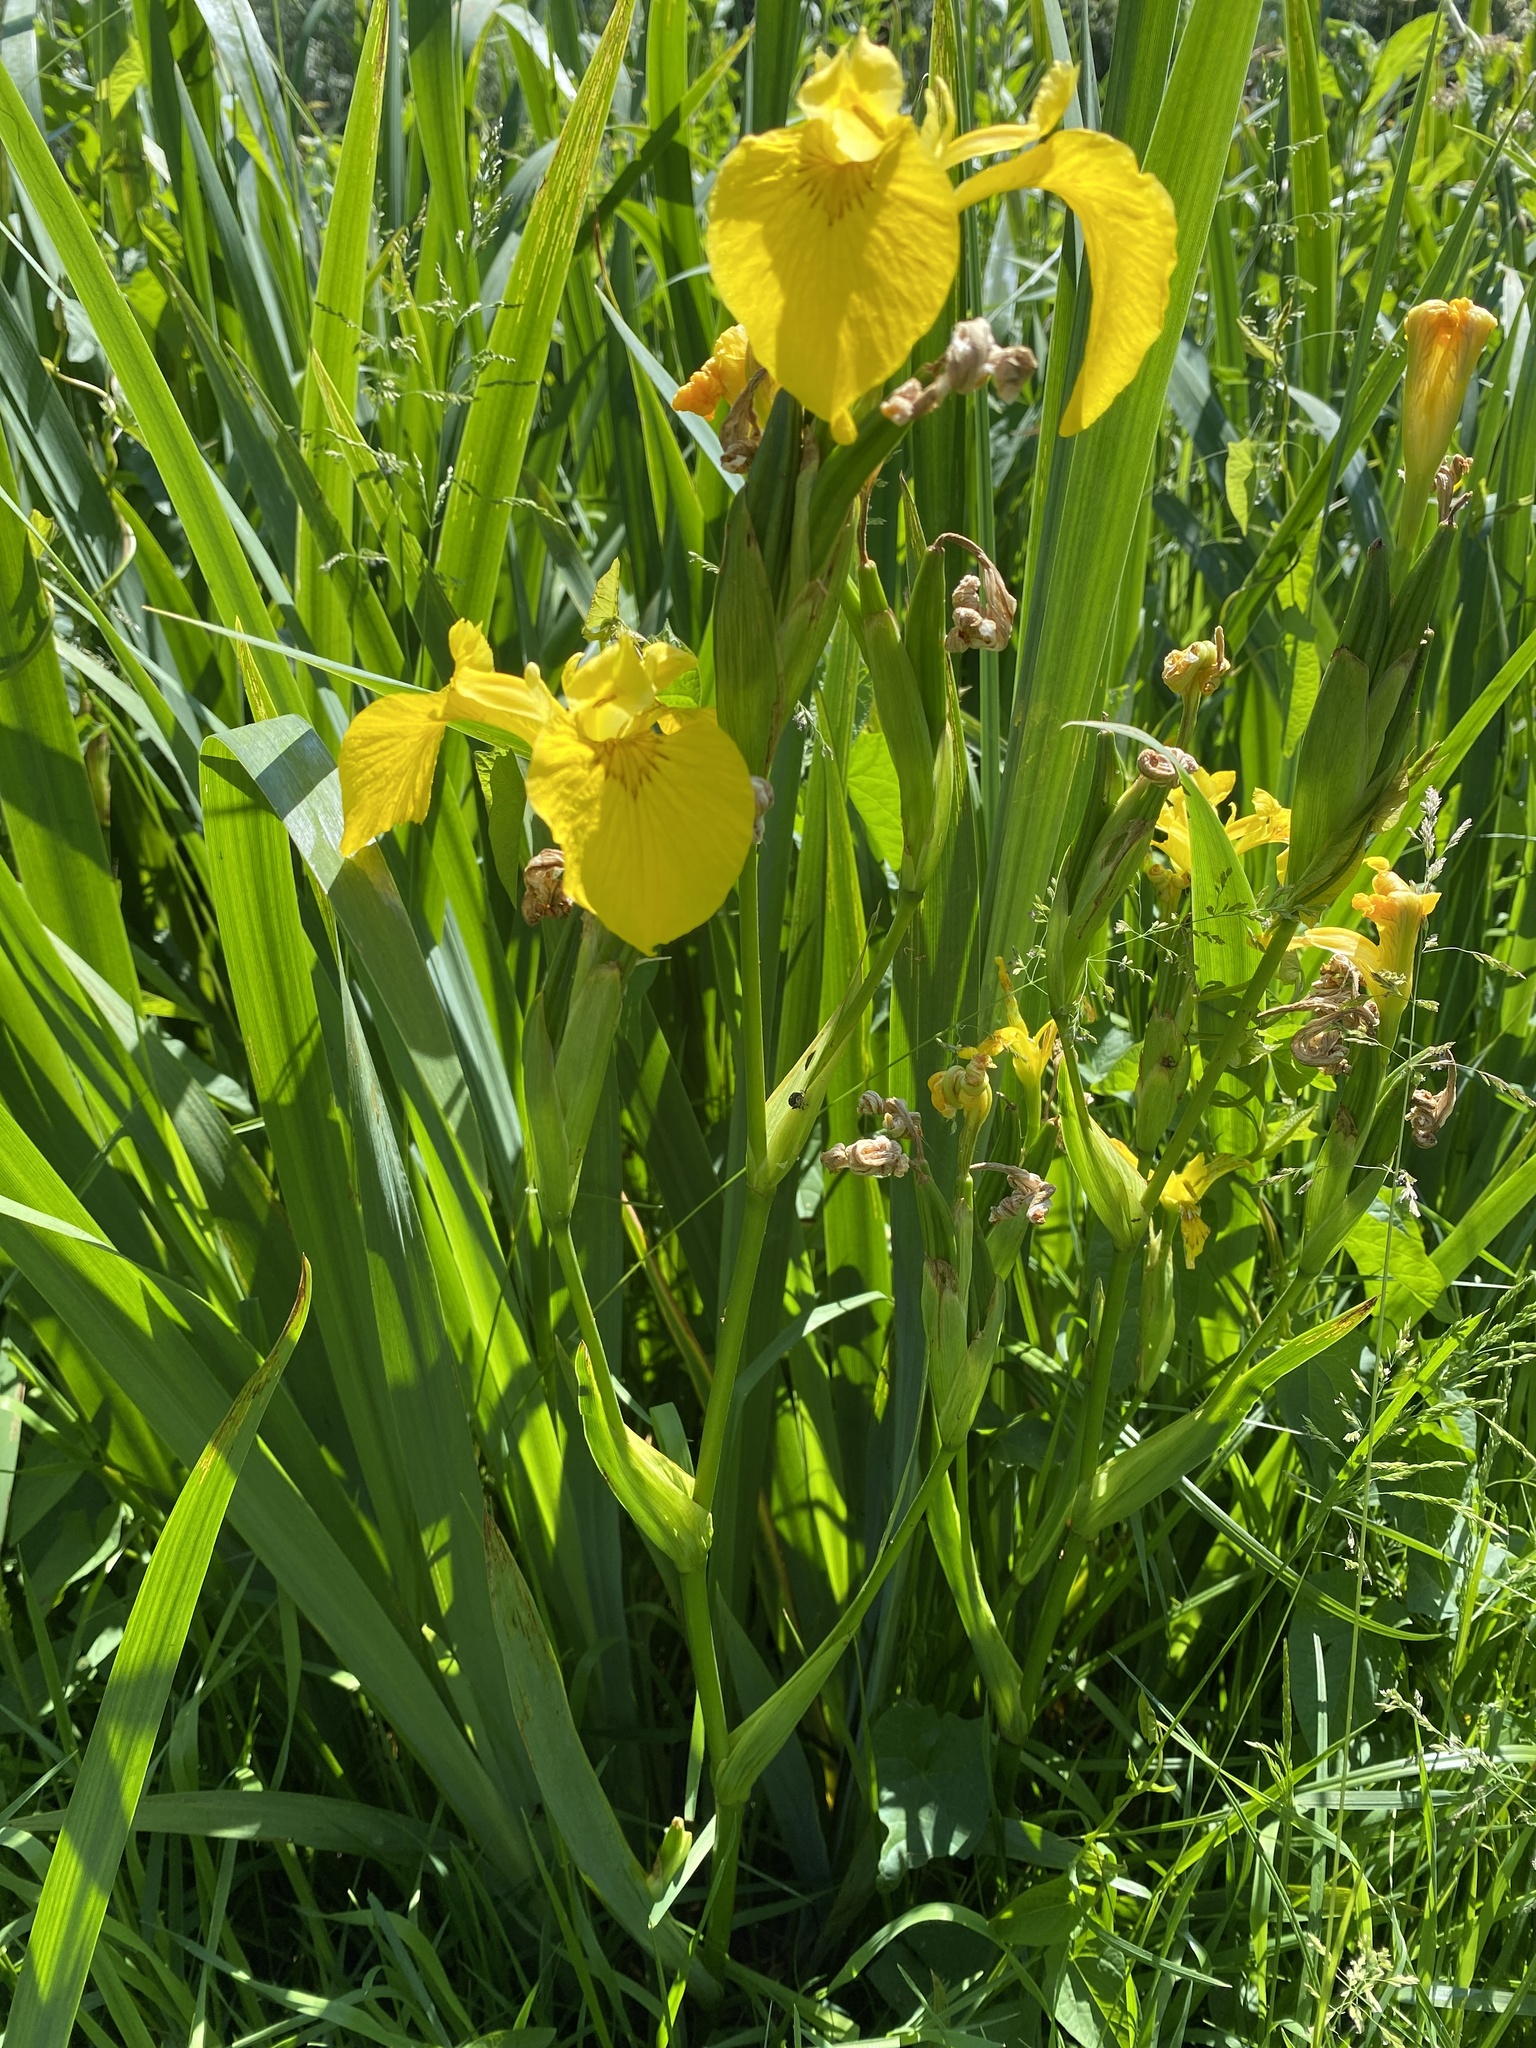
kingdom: Plantae
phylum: Tracheophyta
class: Liliopsida
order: Asparagales
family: Iridaceae
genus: Iris
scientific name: Iris pseudacorus
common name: Yellow flag
